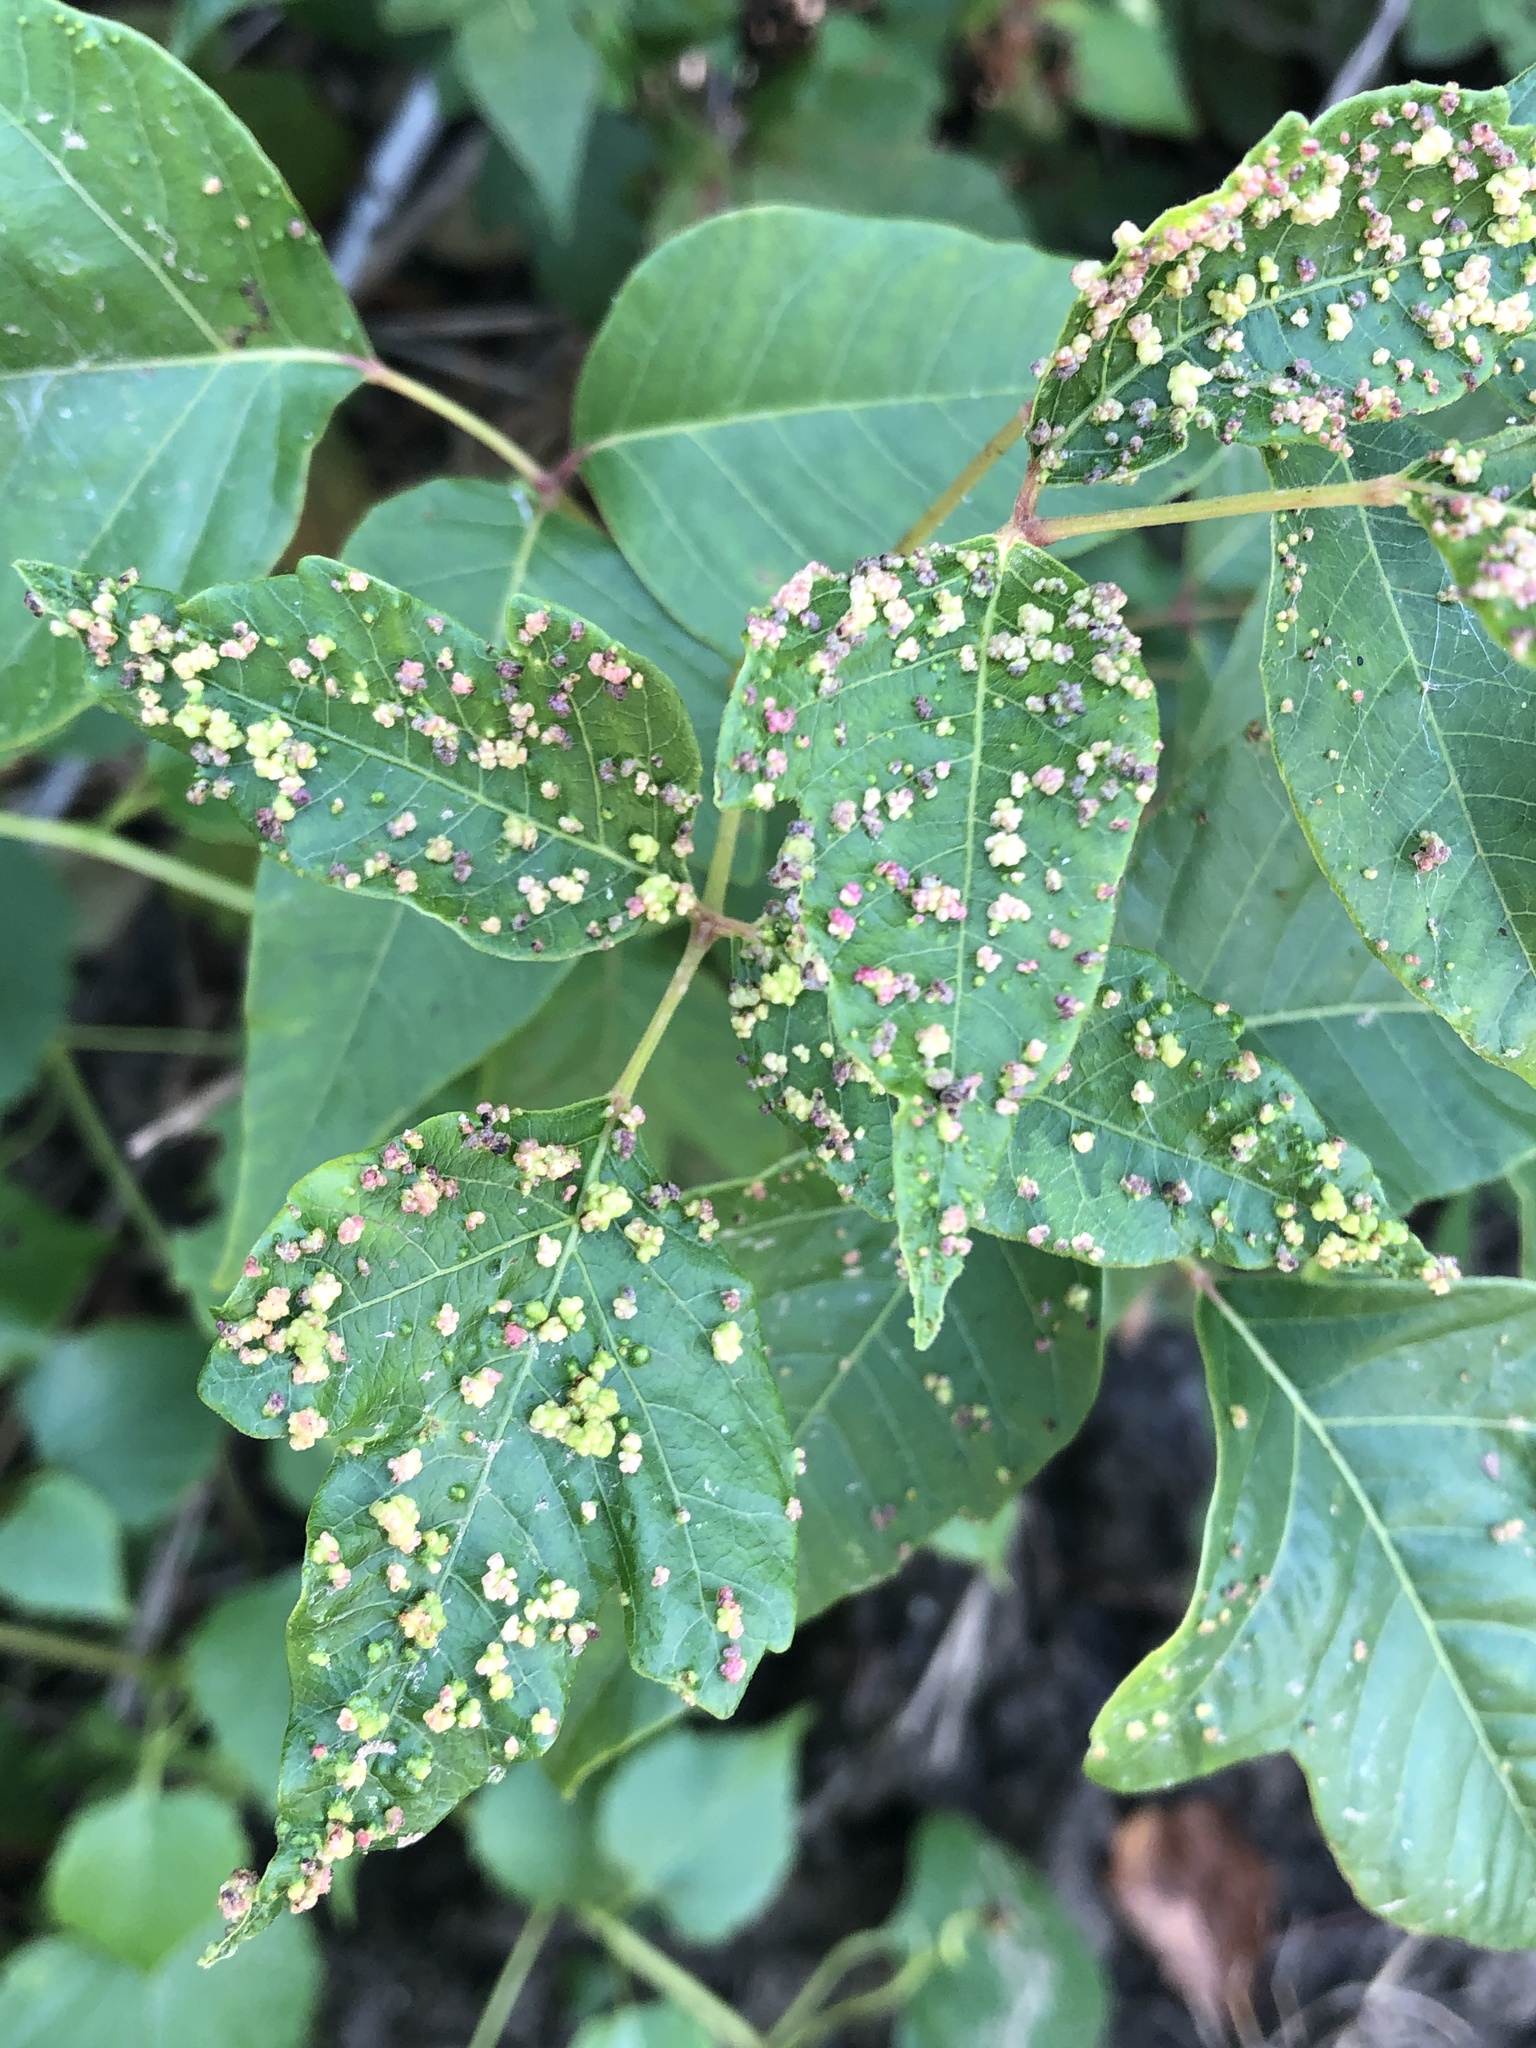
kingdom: Animalia
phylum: Arthropoda
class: Arachnida
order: Trombidiformes
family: Eriophyidae
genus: Aculops
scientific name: Aculops
